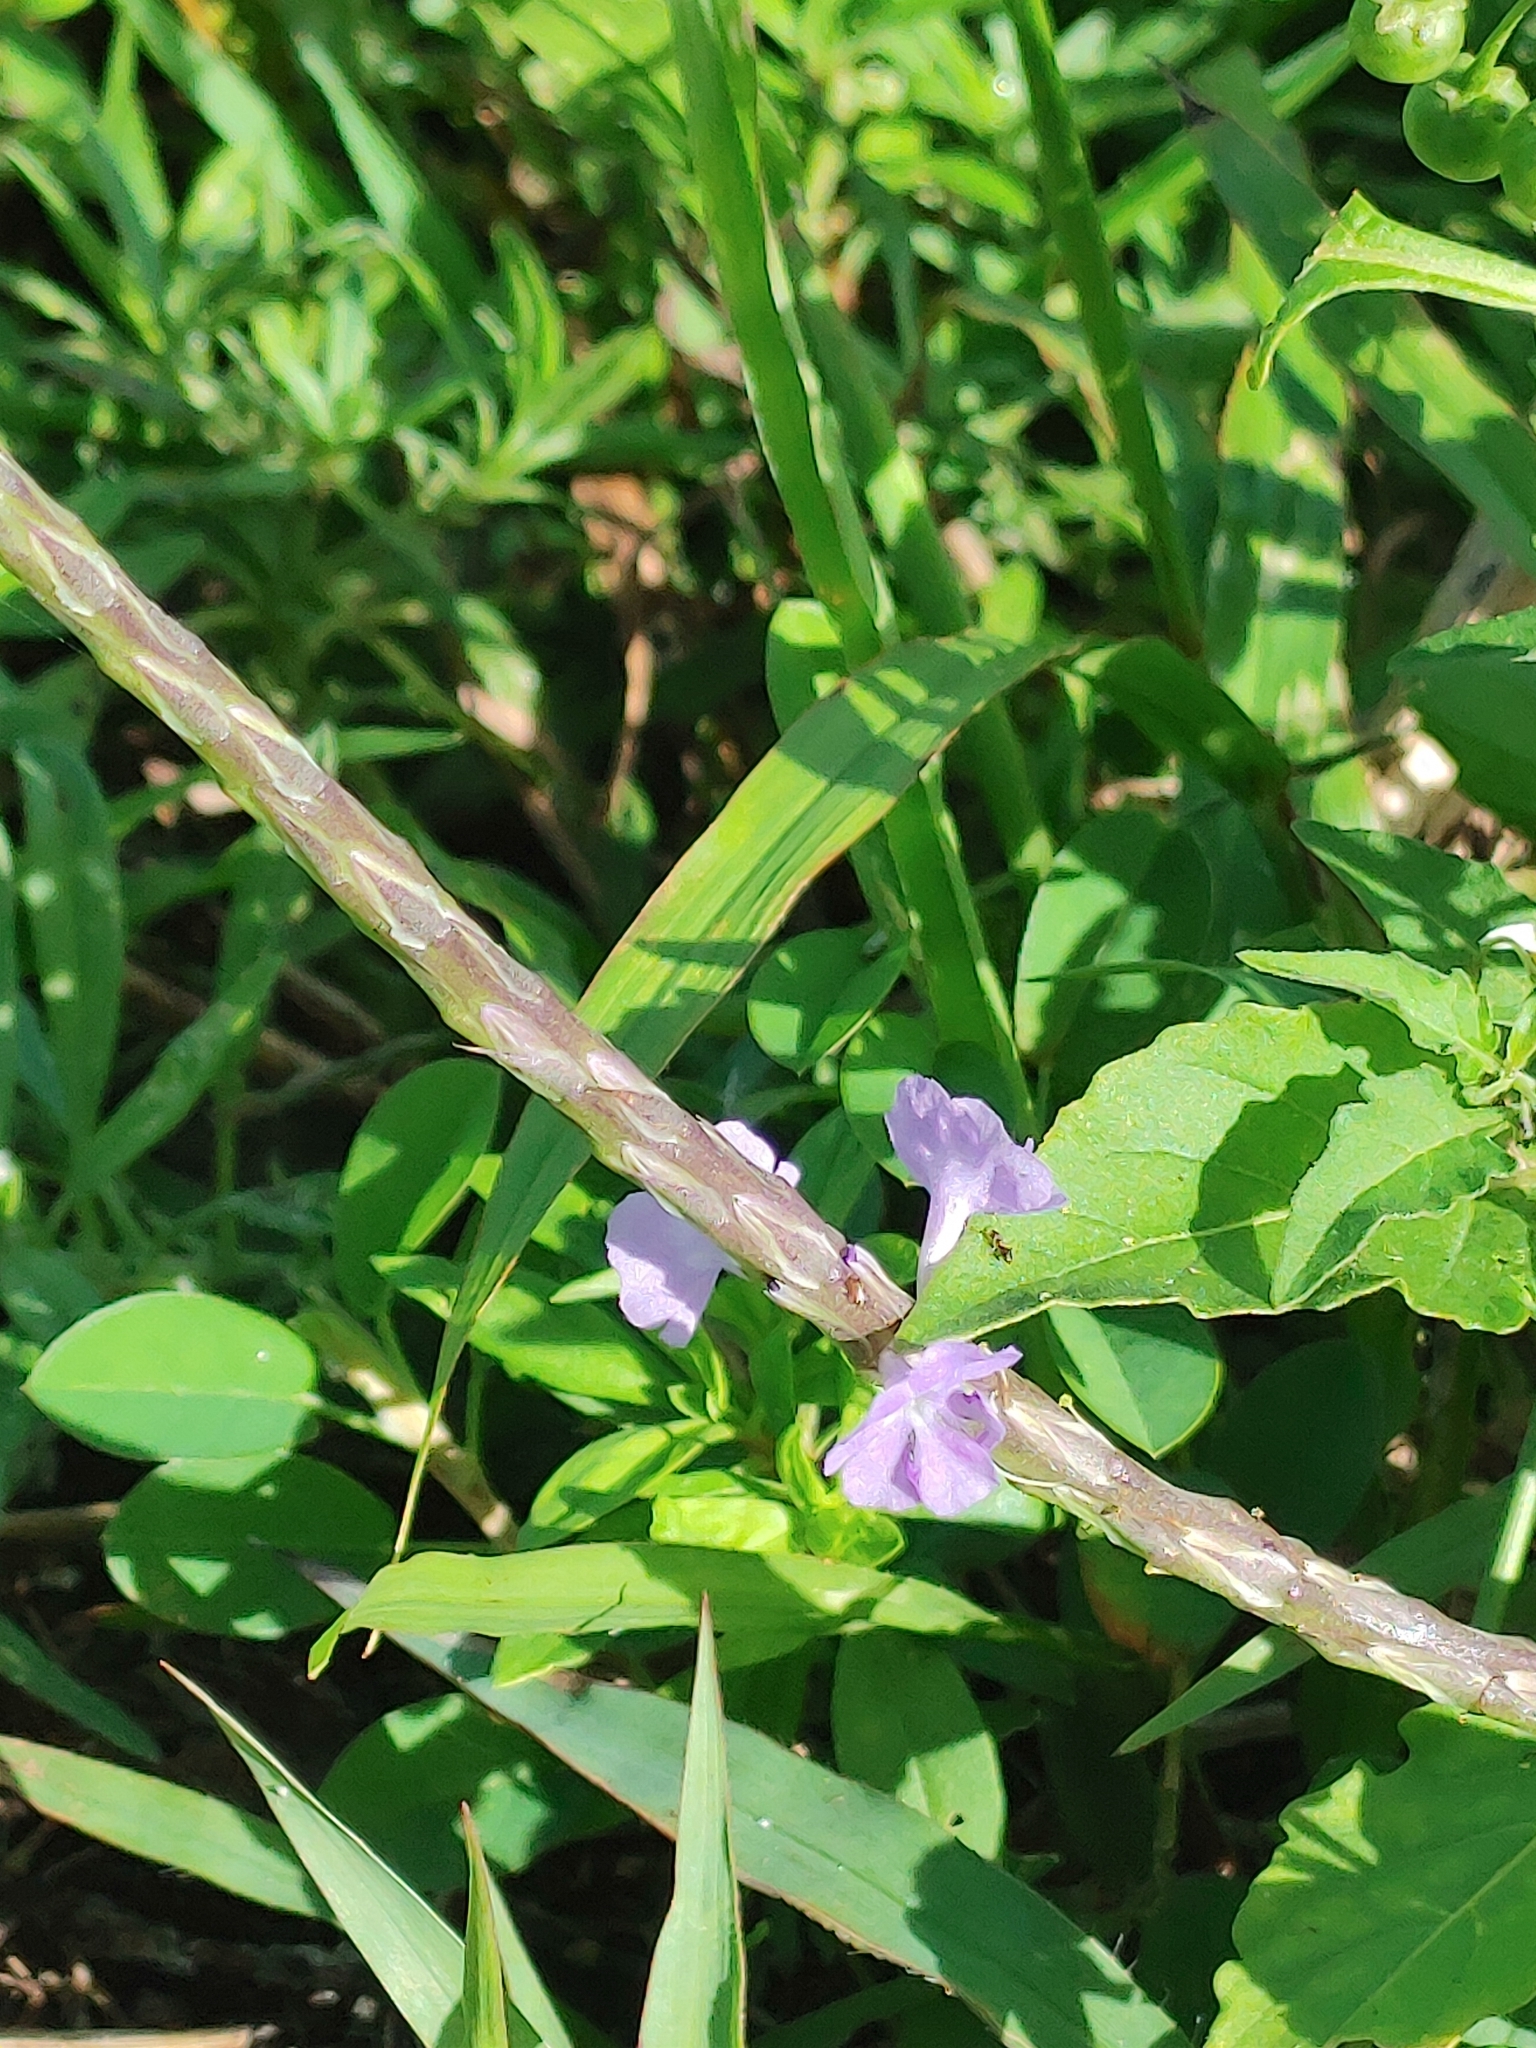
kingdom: Plantae
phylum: Tracheophyta
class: Magnoliopsida
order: Lamiales
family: Verbenaceae
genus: Stachytarpheta
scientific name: Stachytarpheta jamaicensis
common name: Light-blue snakeweed
